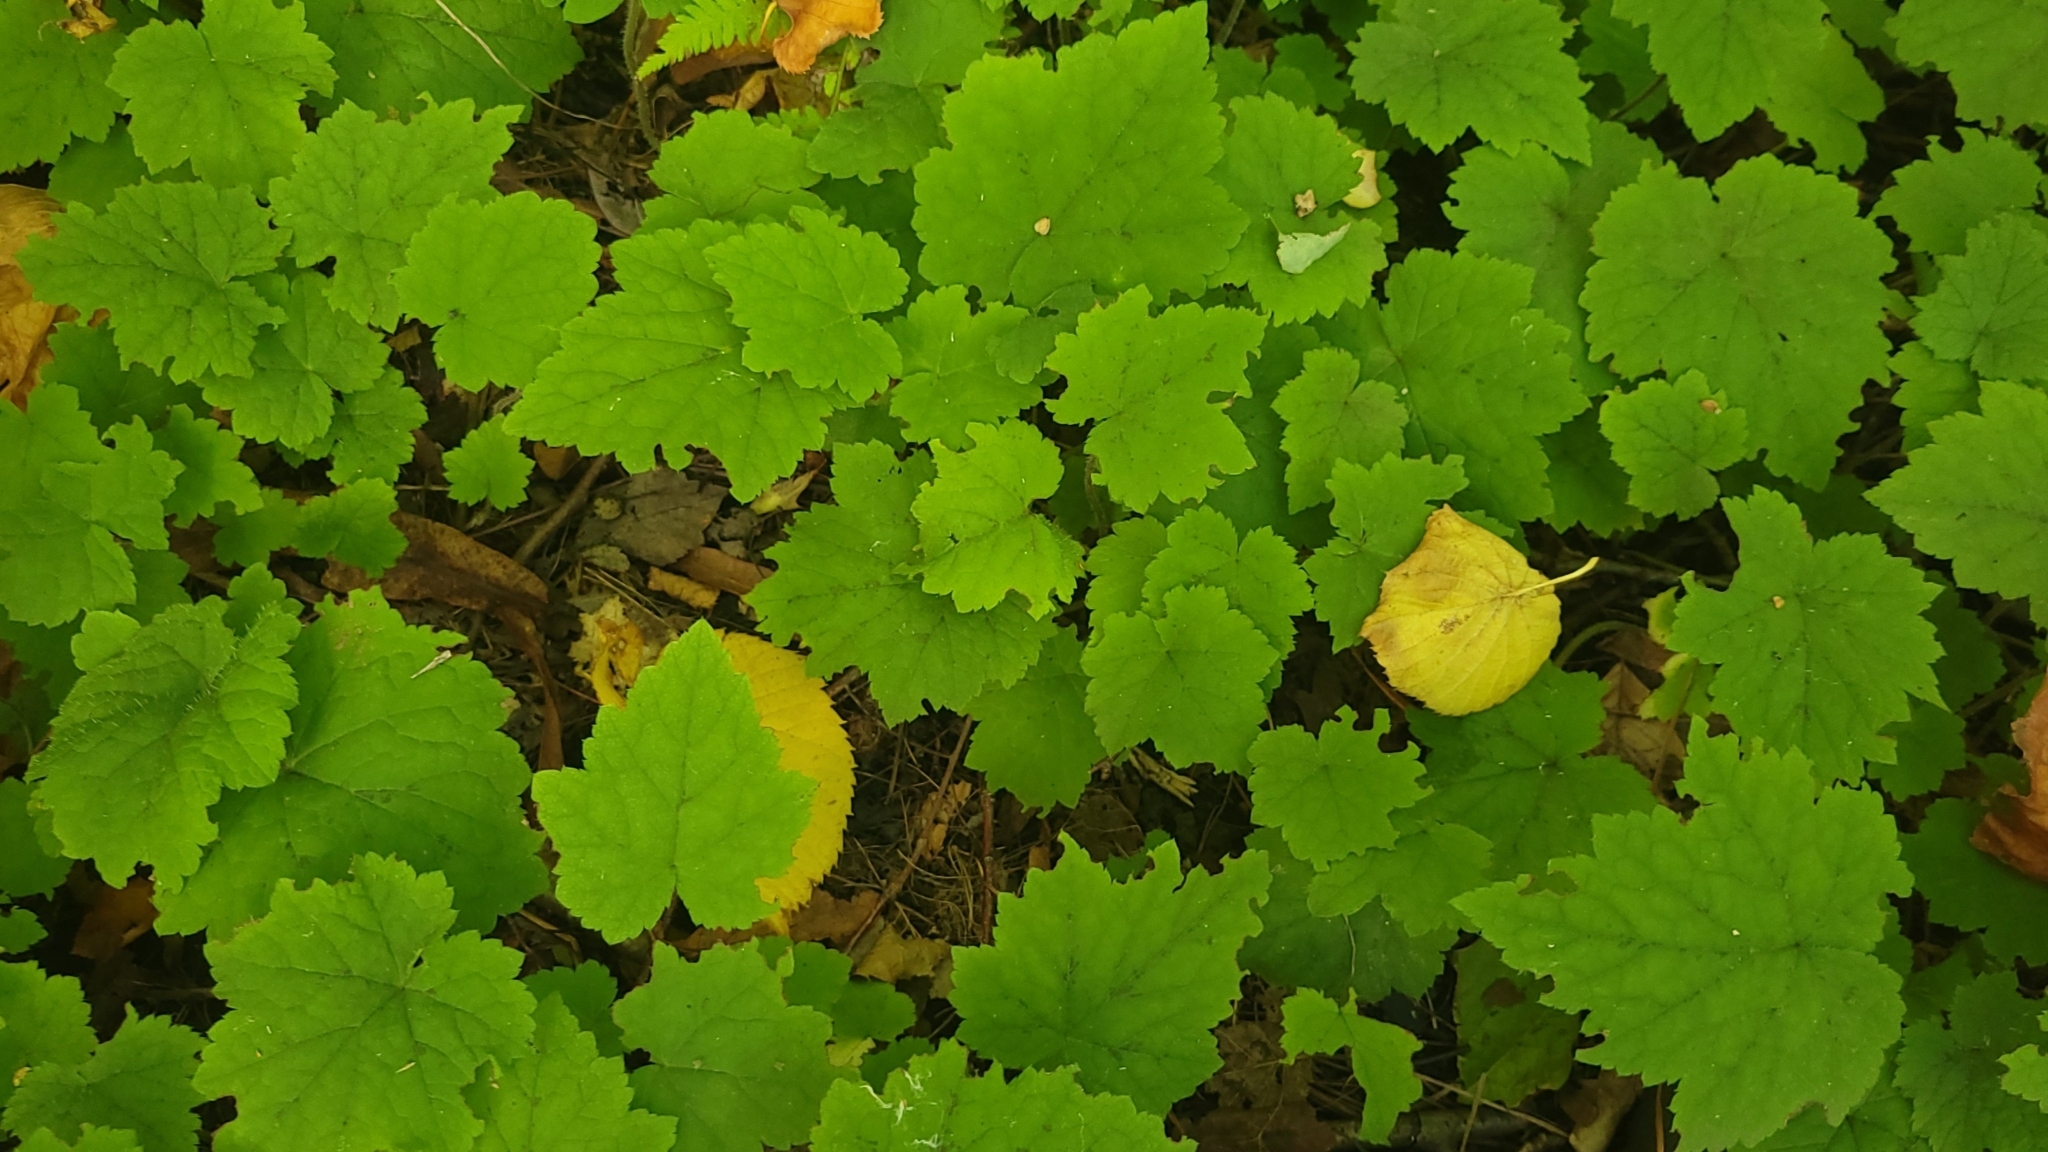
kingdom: Plantae
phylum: Tracheophyta
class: Magnoliopsida
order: Saxifragales
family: Saxifragaceae
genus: Tiarella
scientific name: Tiarella stolonifera
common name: Stoloniferous foamflower
